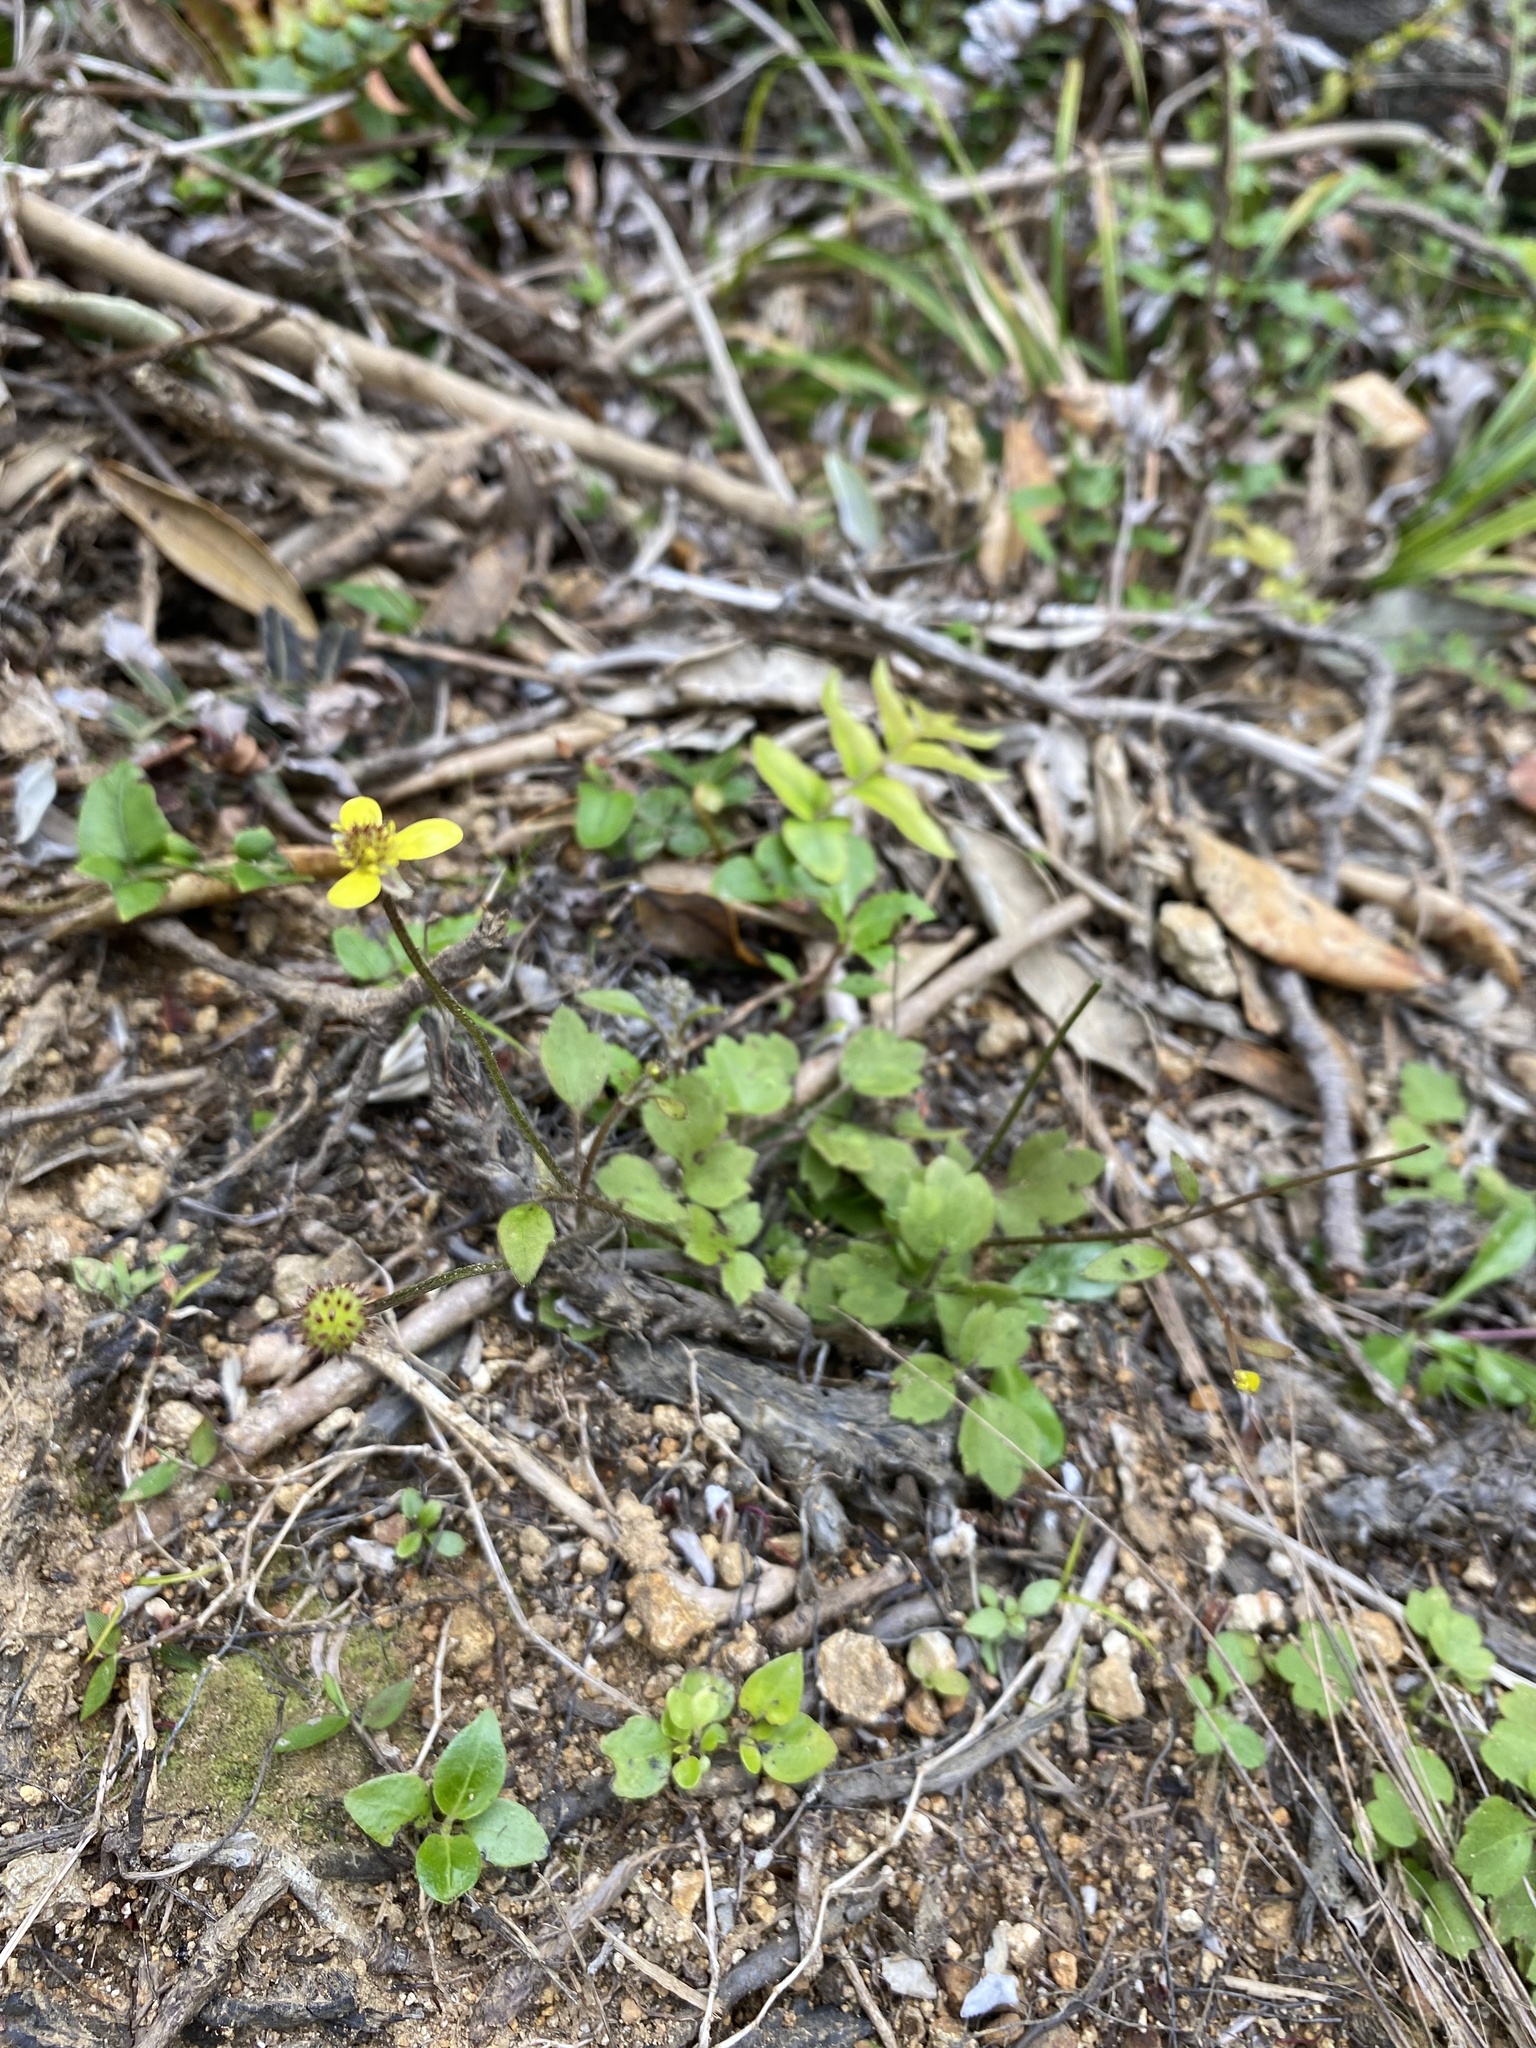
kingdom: Plantae
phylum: Tracheophyta
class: Magnoliopsida
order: Ranunculales
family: Ranunculaceae
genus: Ranunculus
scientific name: Ranunculus reflexus
